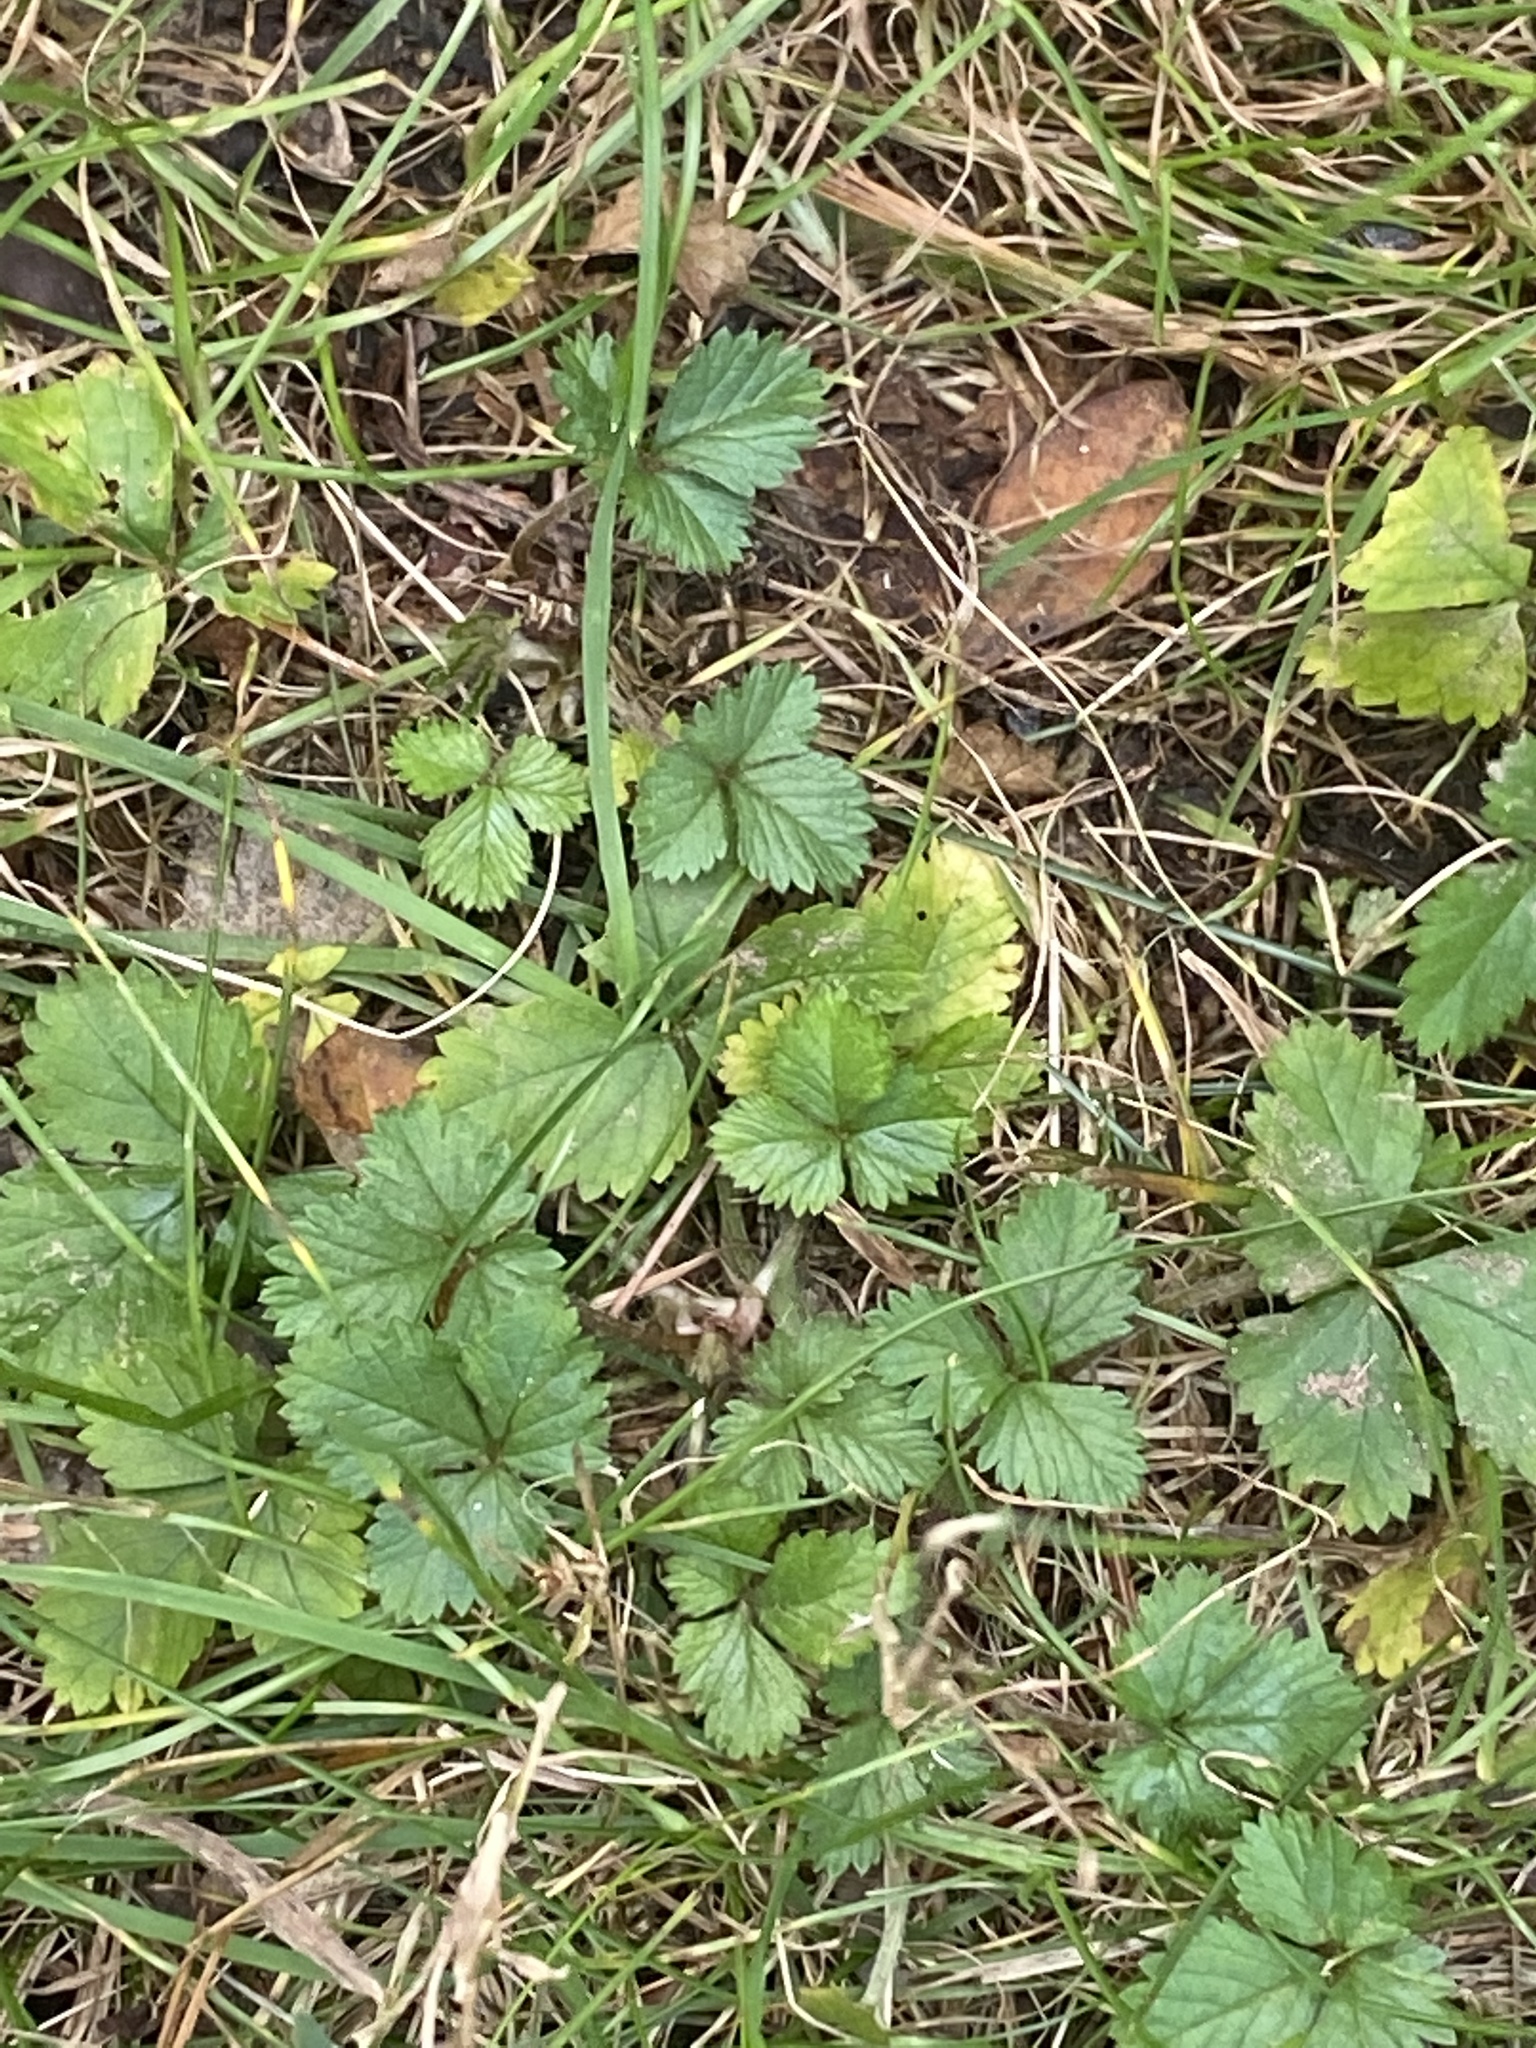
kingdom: Plantae
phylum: Tracheophyta
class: Magnoliopsida
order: Rosales
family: Rosaceae
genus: Potentilla
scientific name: Potentilla indica
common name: Yellow-flowered strawberry
